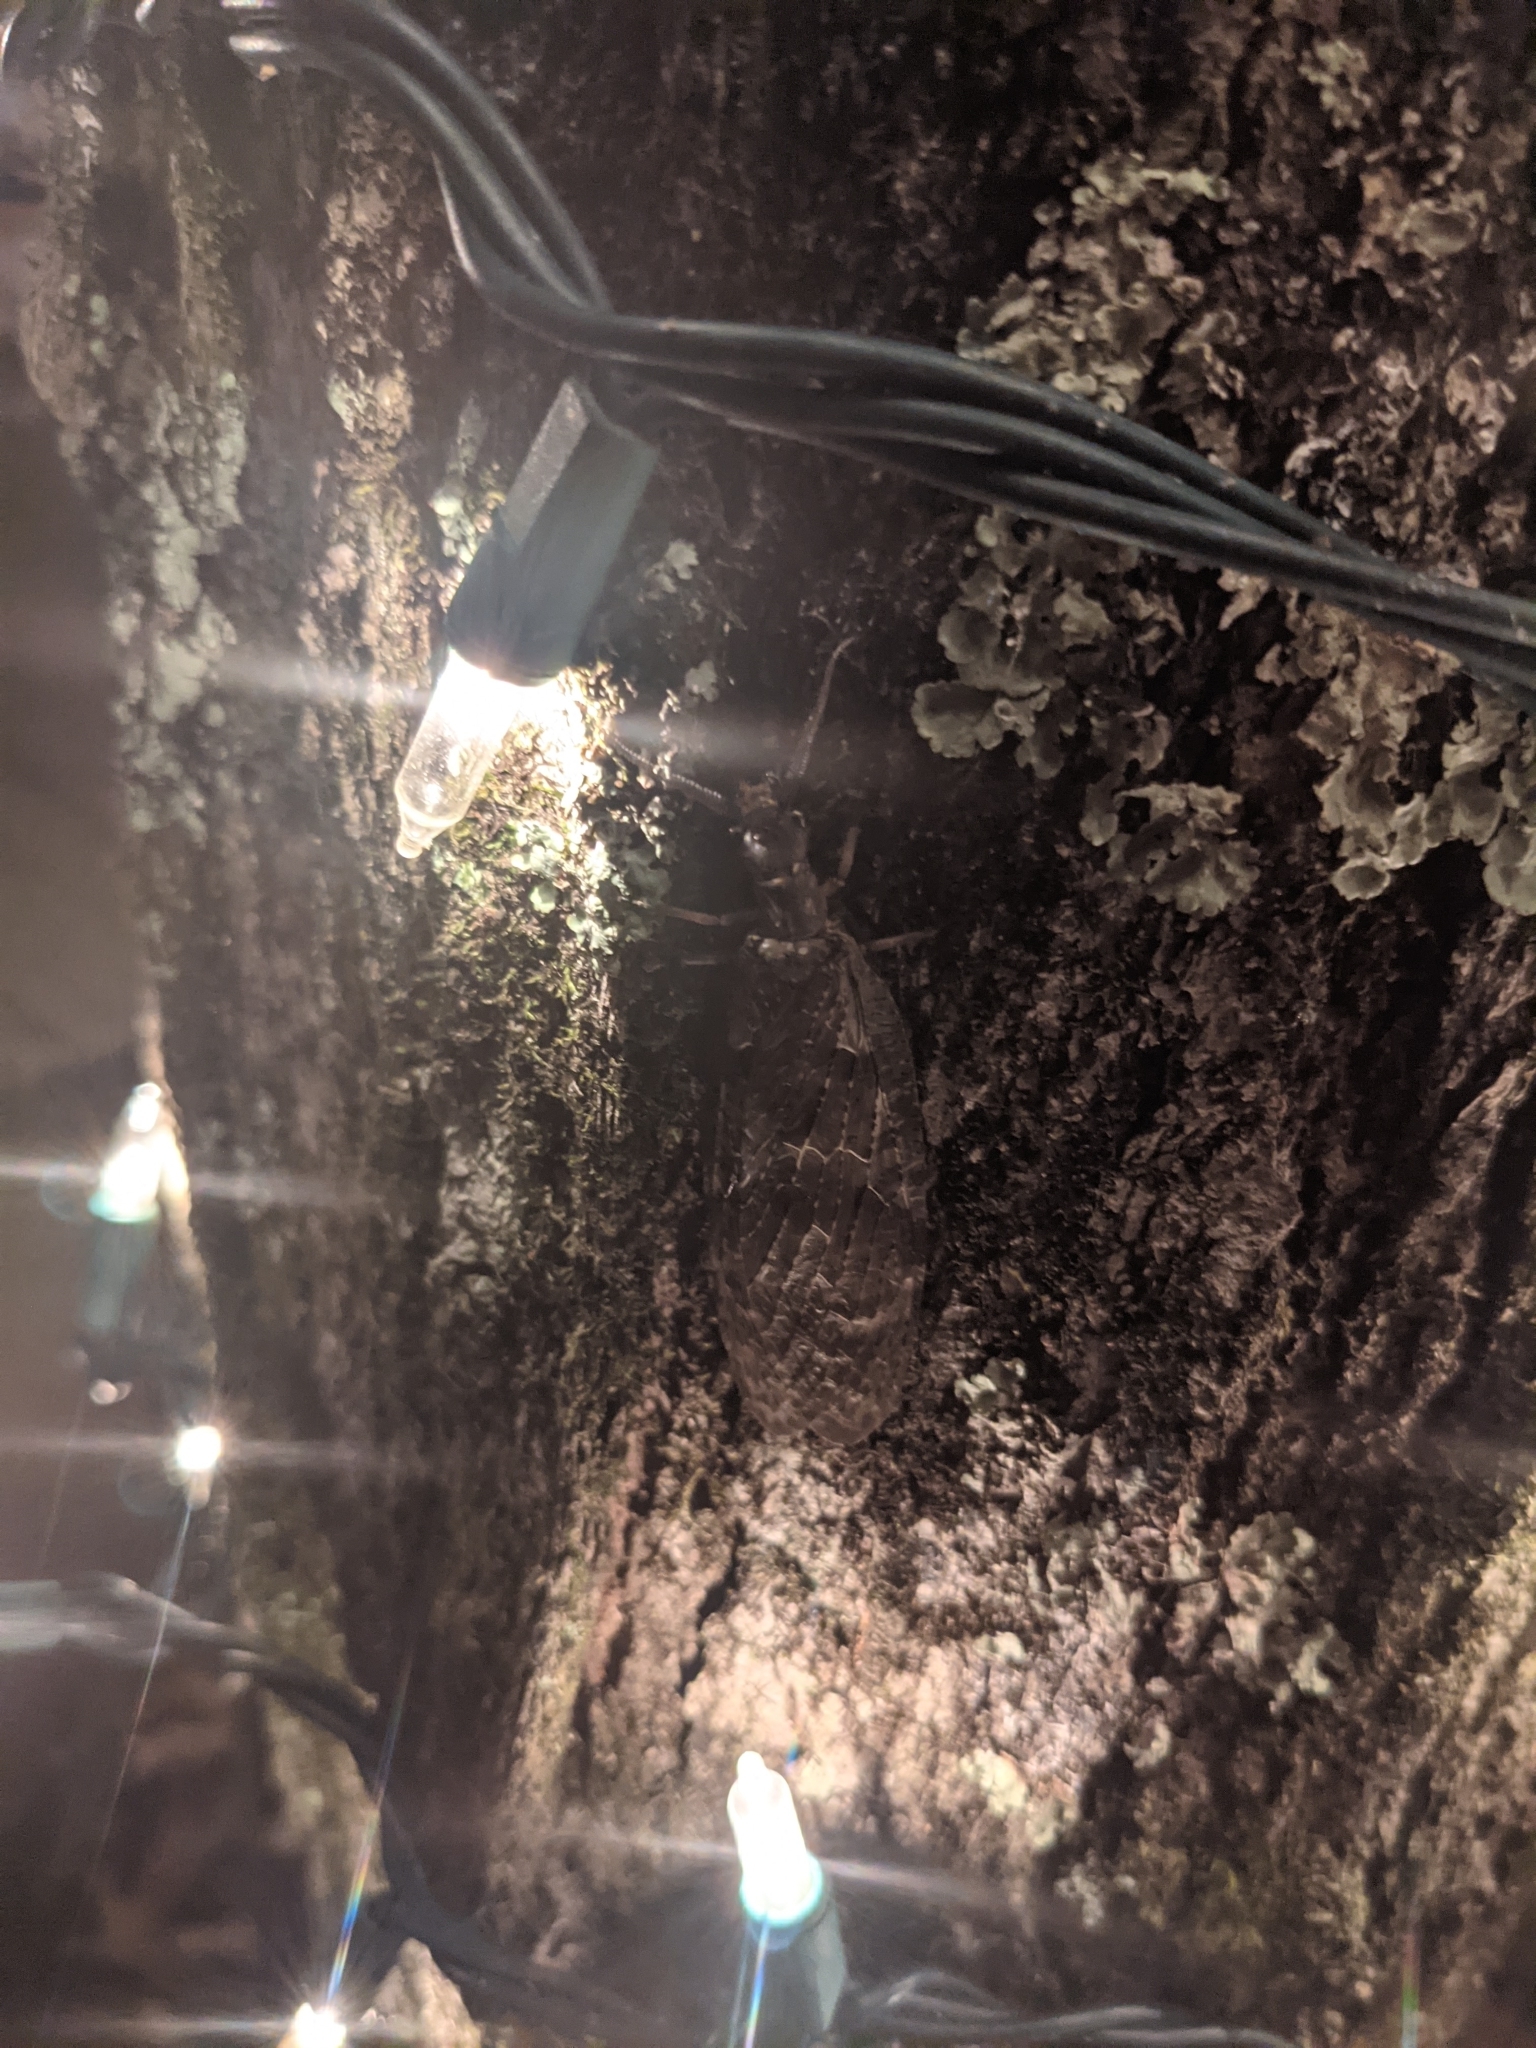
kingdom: Animalia
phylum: Arthropoda
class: Insecta
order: Megaloptera
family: Corydalidae
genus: Chauliodes
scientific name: Chauliodes pectinicornis
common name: Summer fishfly
